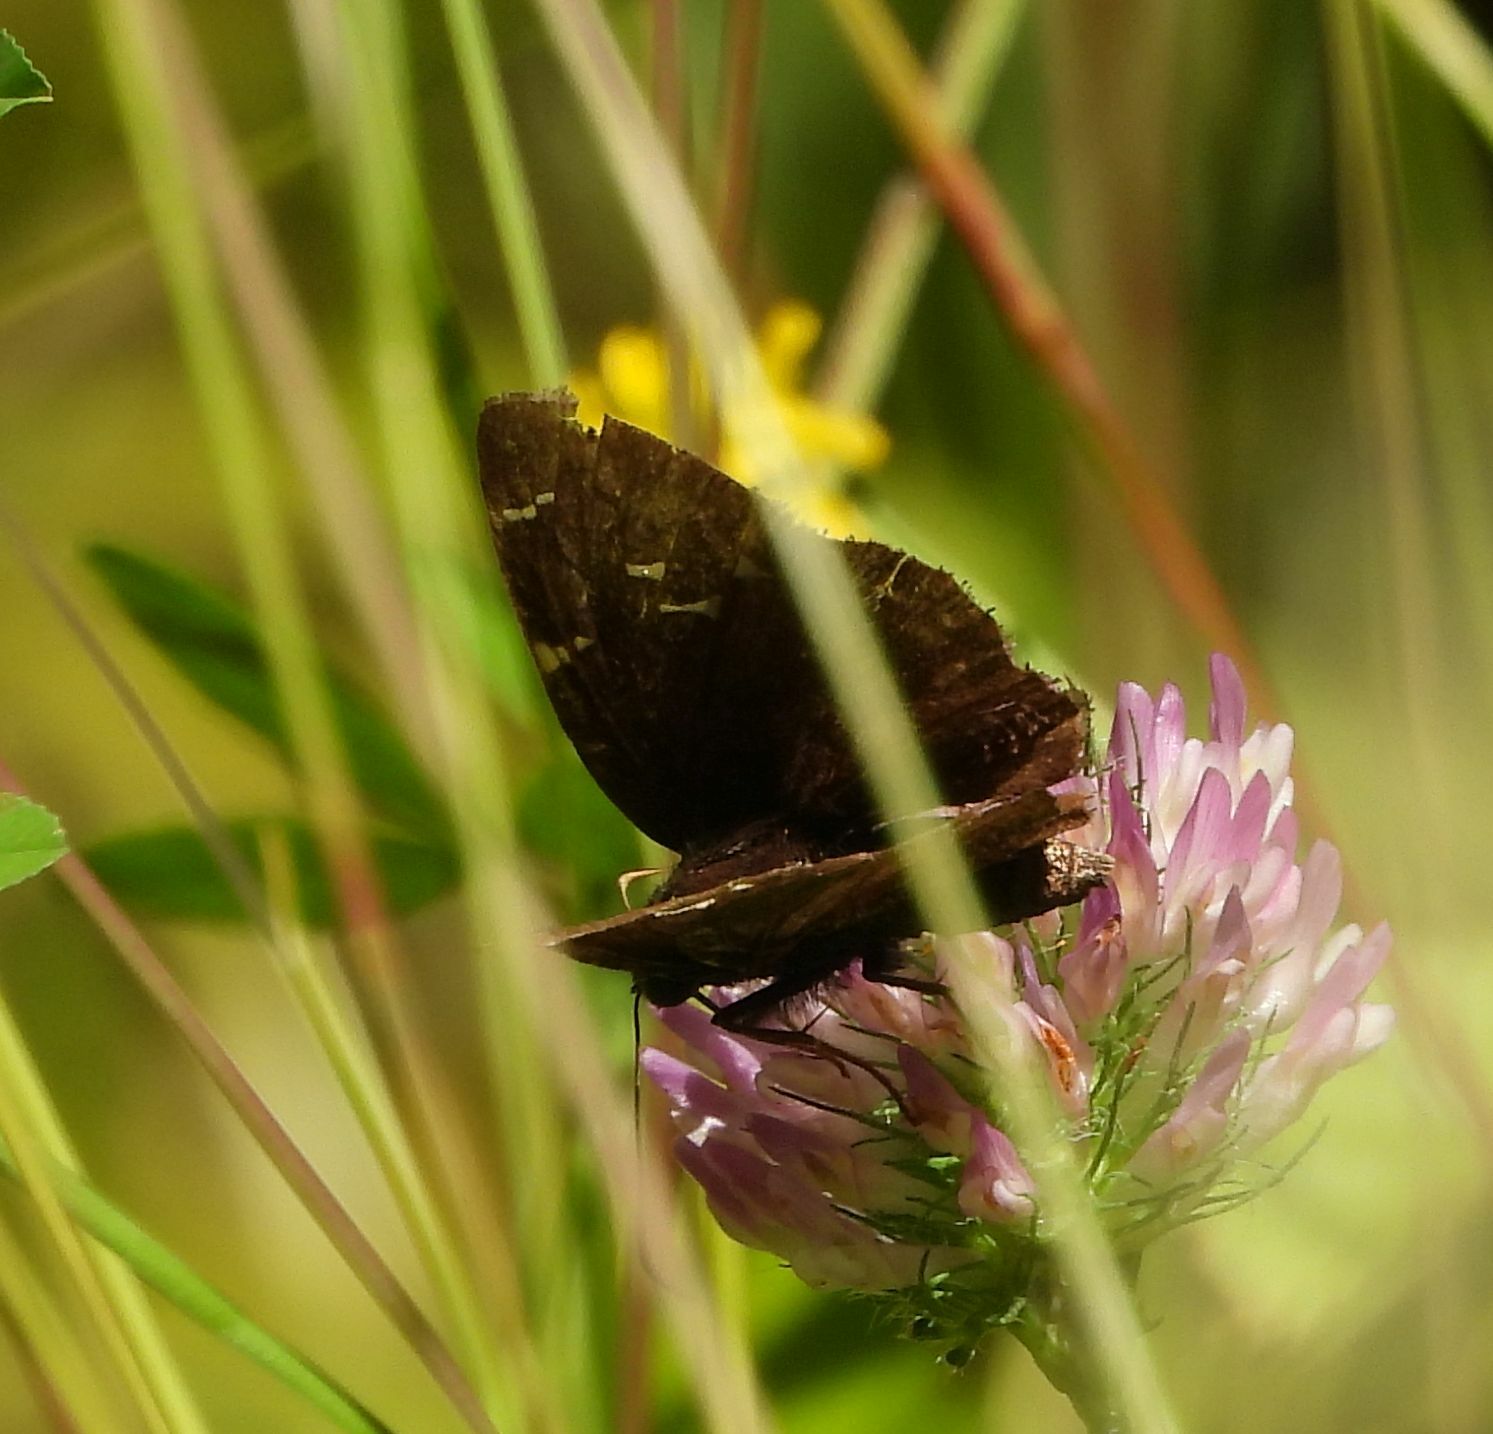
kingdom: Animalia
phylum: Arthropoda
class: Insecta
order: Lepidoptera
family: Hesperiidae
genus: Thorybes
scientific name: Thorybes pylades
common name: Northern cloudywing
